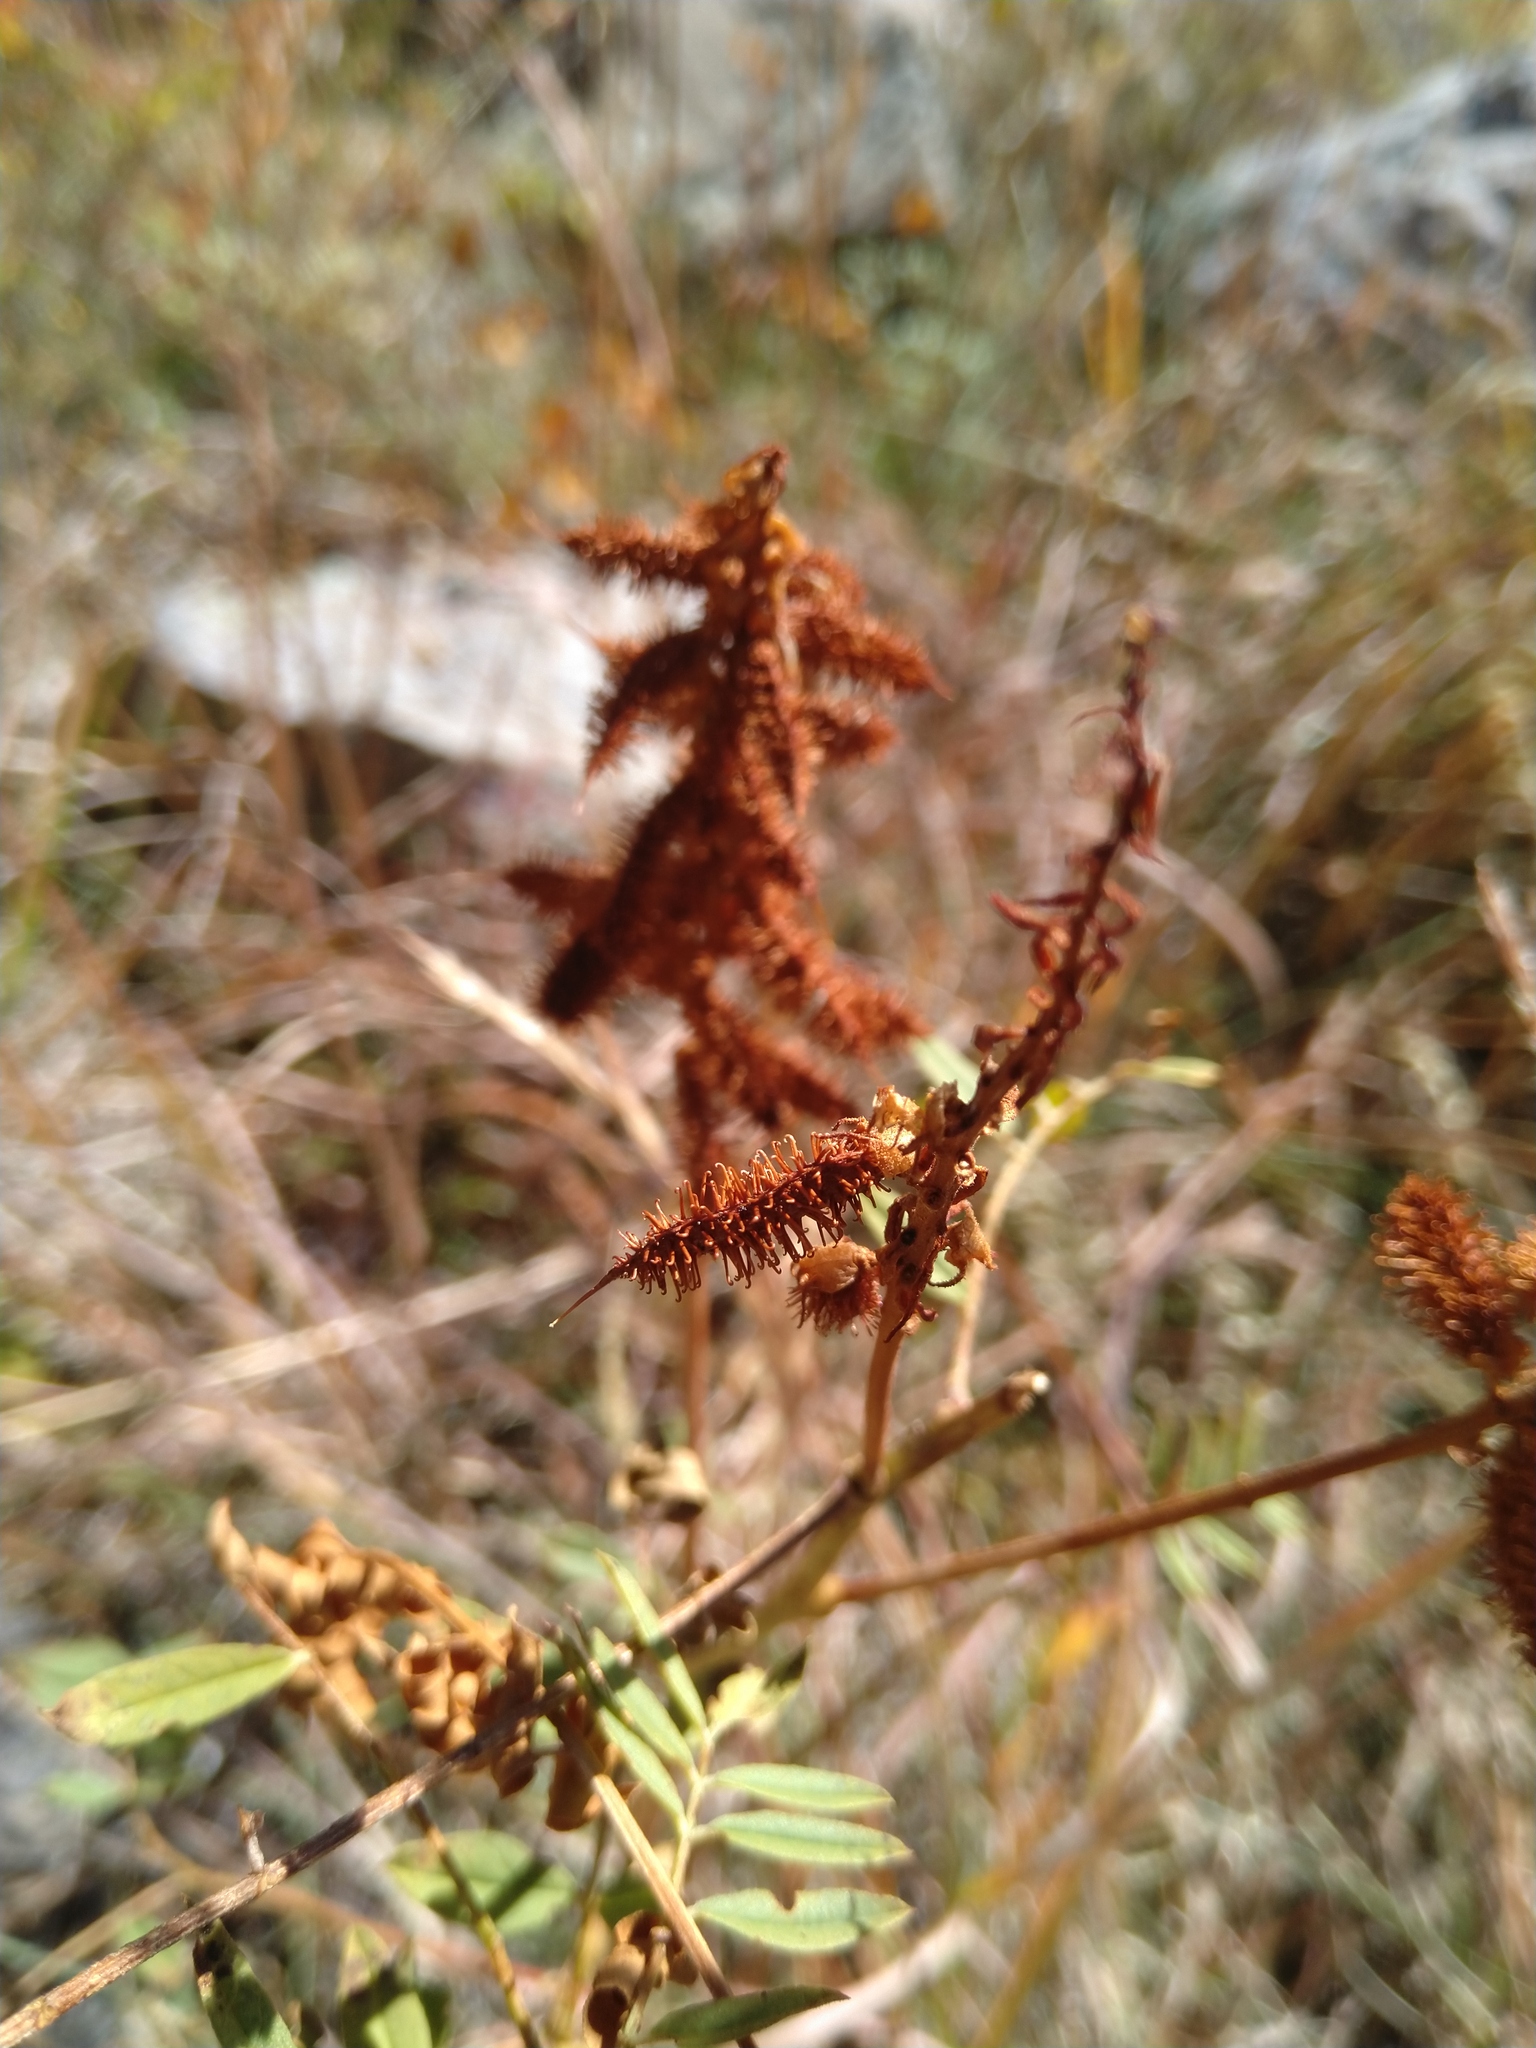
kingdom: Plantae
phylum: Tracheophyta
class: Magnoliopsida
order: Fabales
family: Fabaceae
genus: Glycyrrhiza
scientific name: Glycyrrhiza lepidota
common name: American liquorice
